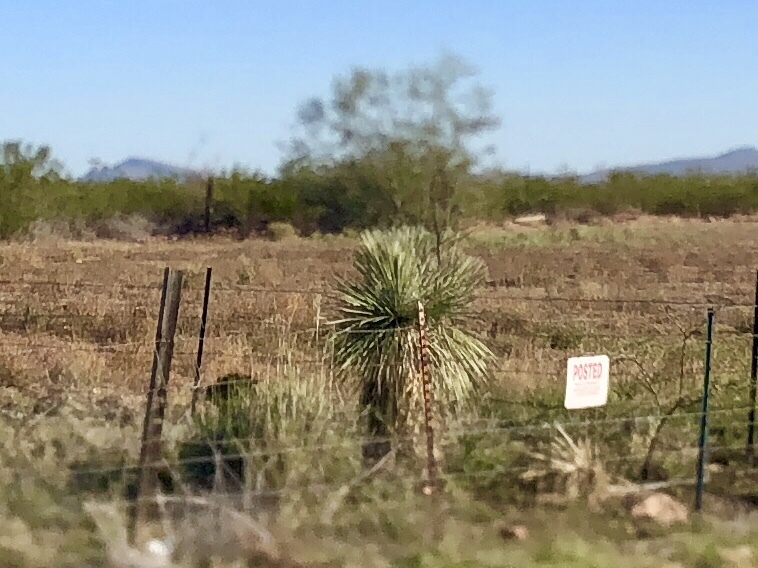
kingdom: Plantae
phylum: Tracheophyta
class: Liliopsida
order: Asparagales
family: Asparagaceae
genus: Yucca
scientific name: Yucca elata
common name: Palmella
